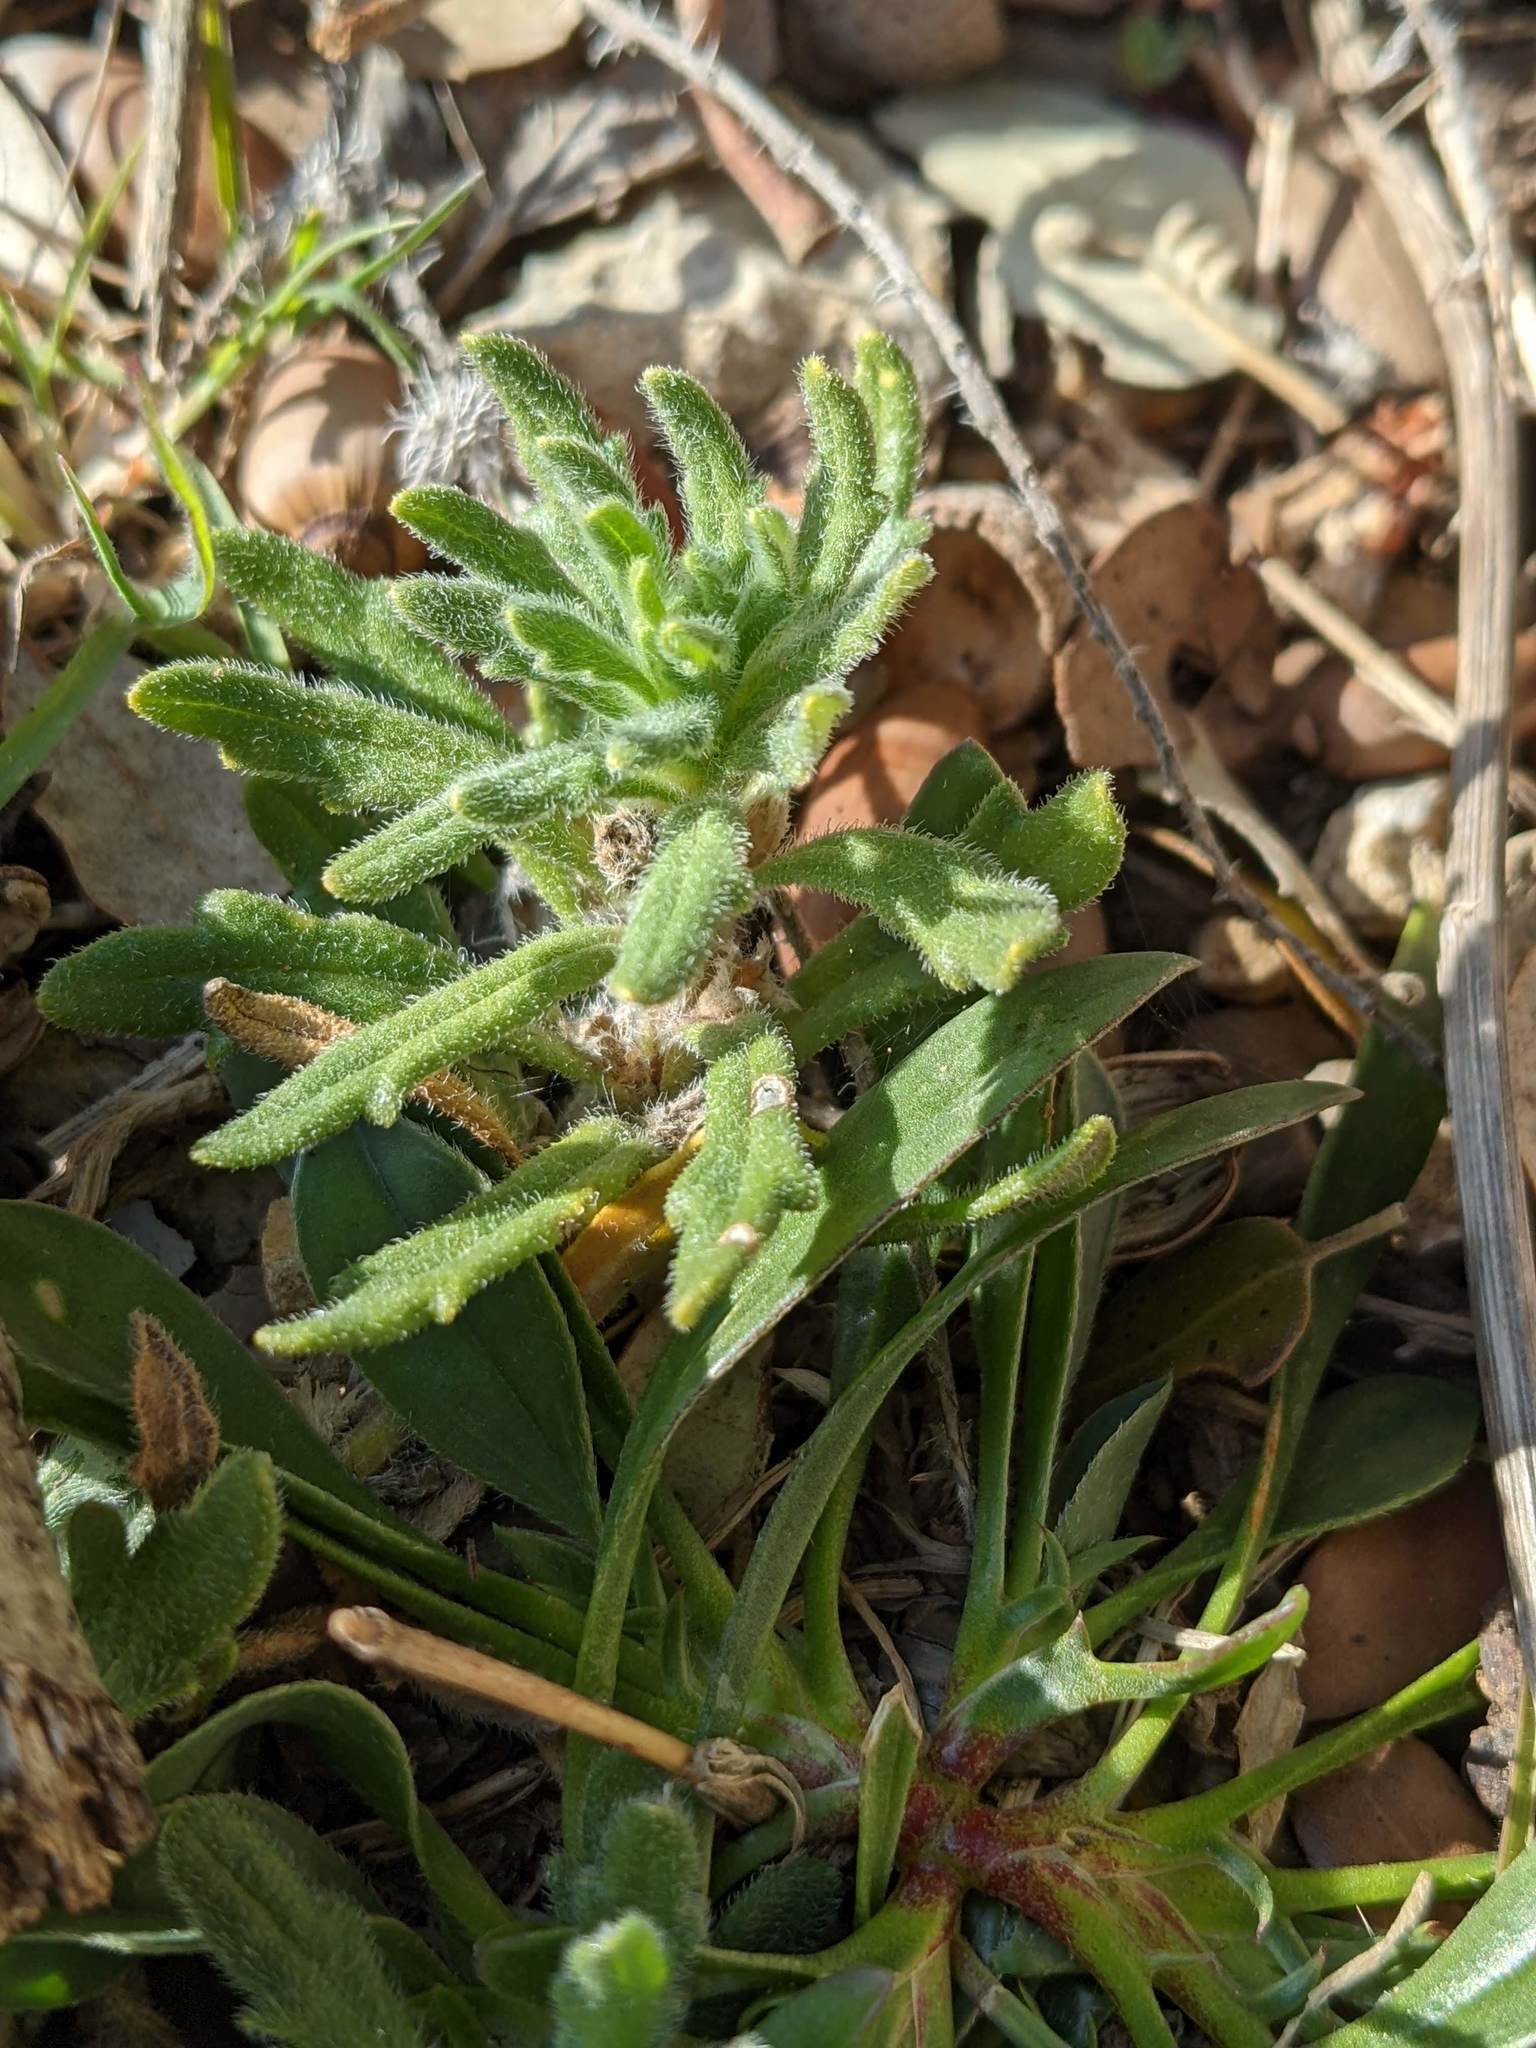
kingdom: Plantae
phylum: Tracheophyta
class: Magnoliopsida
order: Lamiales
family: Lamiaceae
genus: Ajuga
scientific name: Ajuga iva
